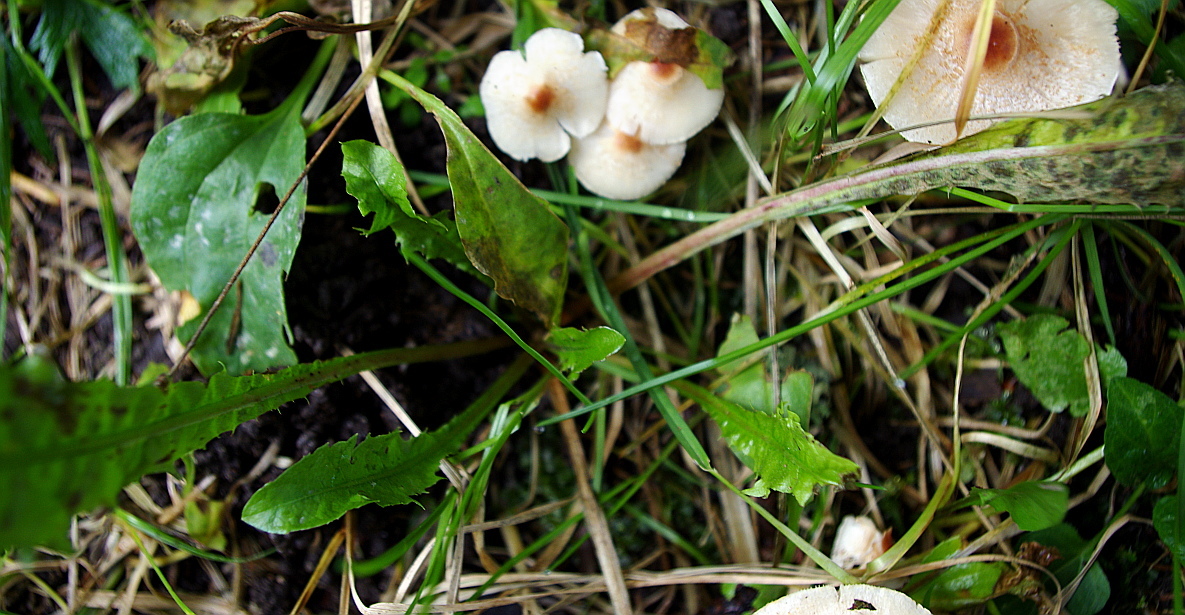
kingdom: Plantae
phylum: Tracheophyta
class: Magnoliopsida
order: Asterales
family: Asteraceae
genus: Taraxacum
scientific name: Taraxacum officinale
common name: Common dandelion
